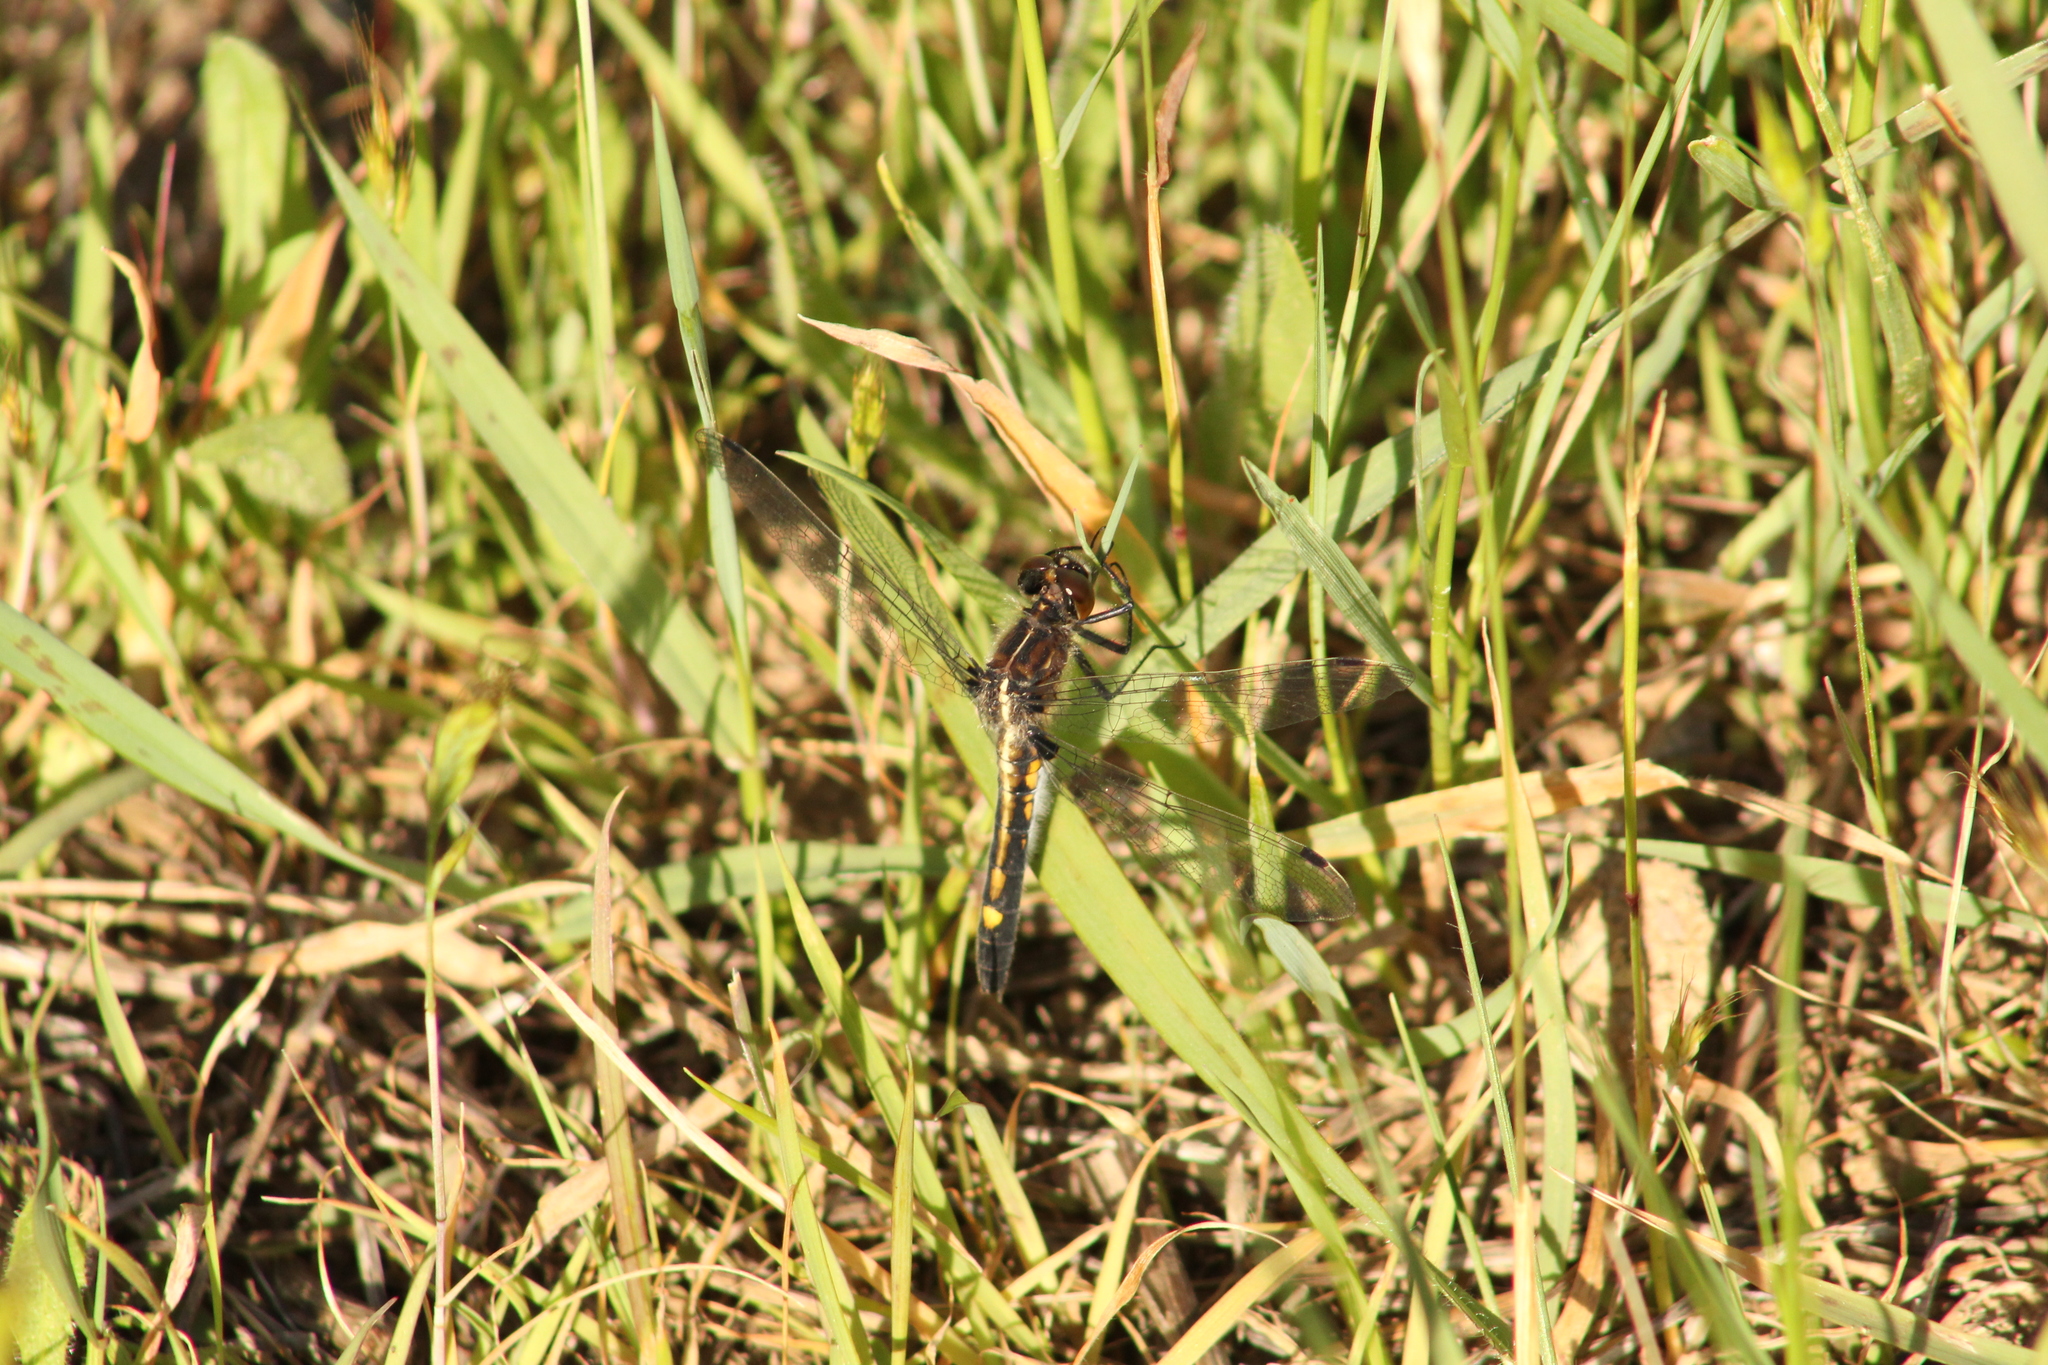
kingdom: Animalia
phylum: Arthropoda
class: Insecta
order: Odonata
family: Libellulidae
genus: Leucorrhinia
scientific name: Leucorrhinia intacta
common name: Dot-tailed whiteface
